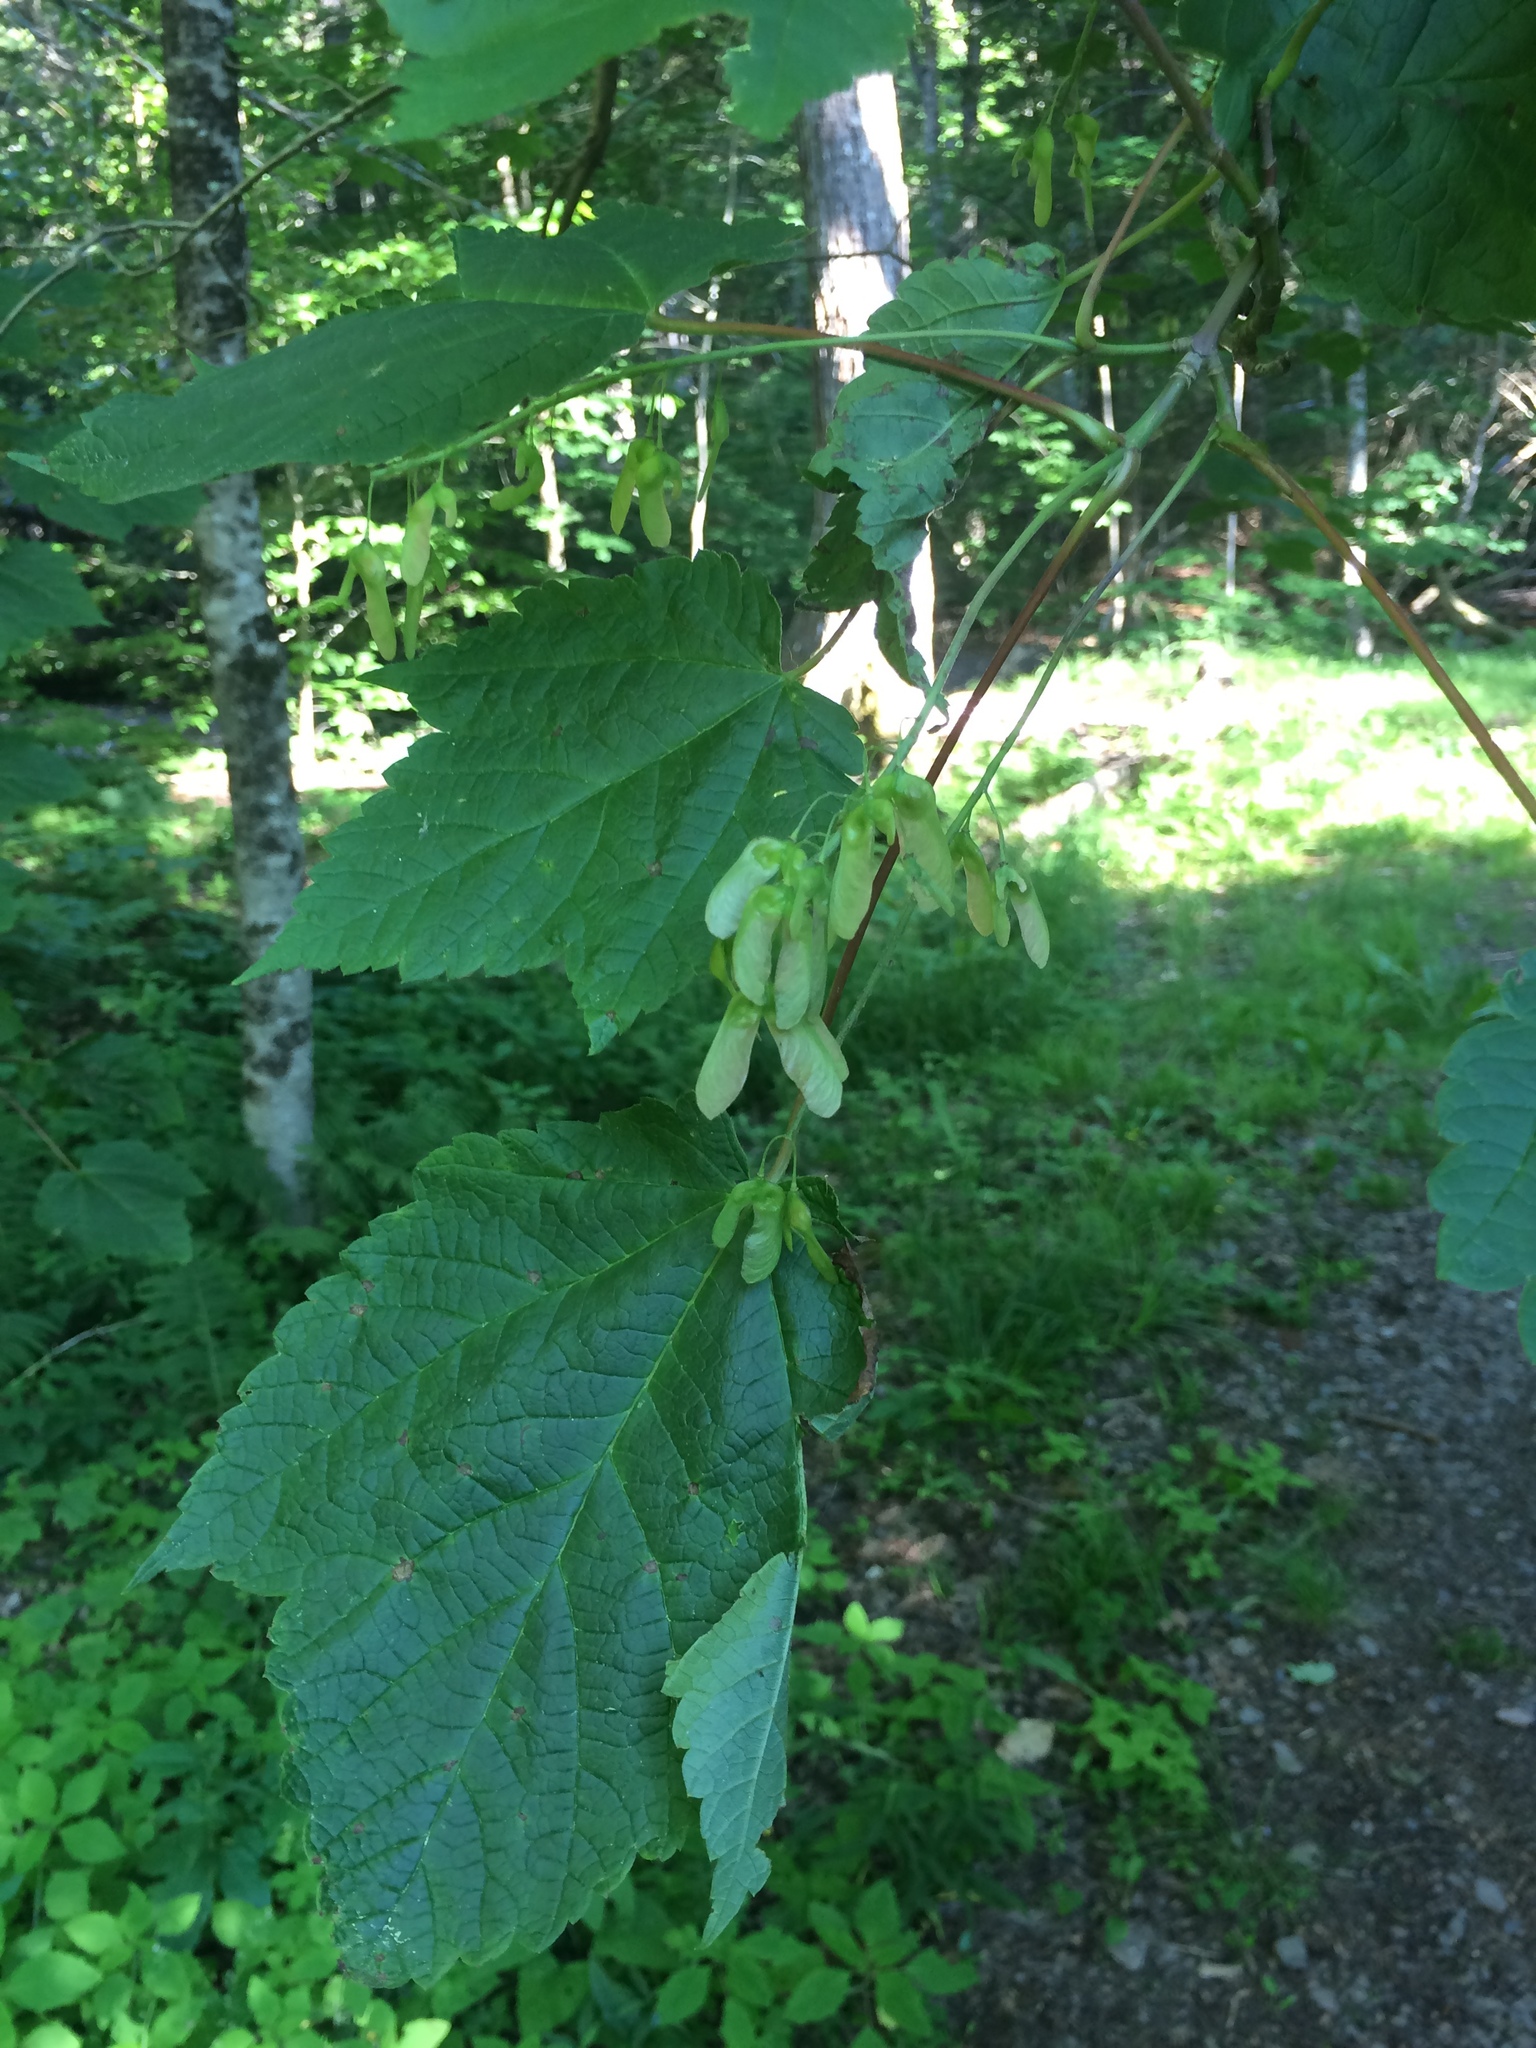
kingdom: Plantae
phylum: Tracheophyta
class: Magnoliopsida
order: Sapindales
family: Sapindaceae
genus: Acer
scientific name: Acer spicatum
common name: Mountain maple
